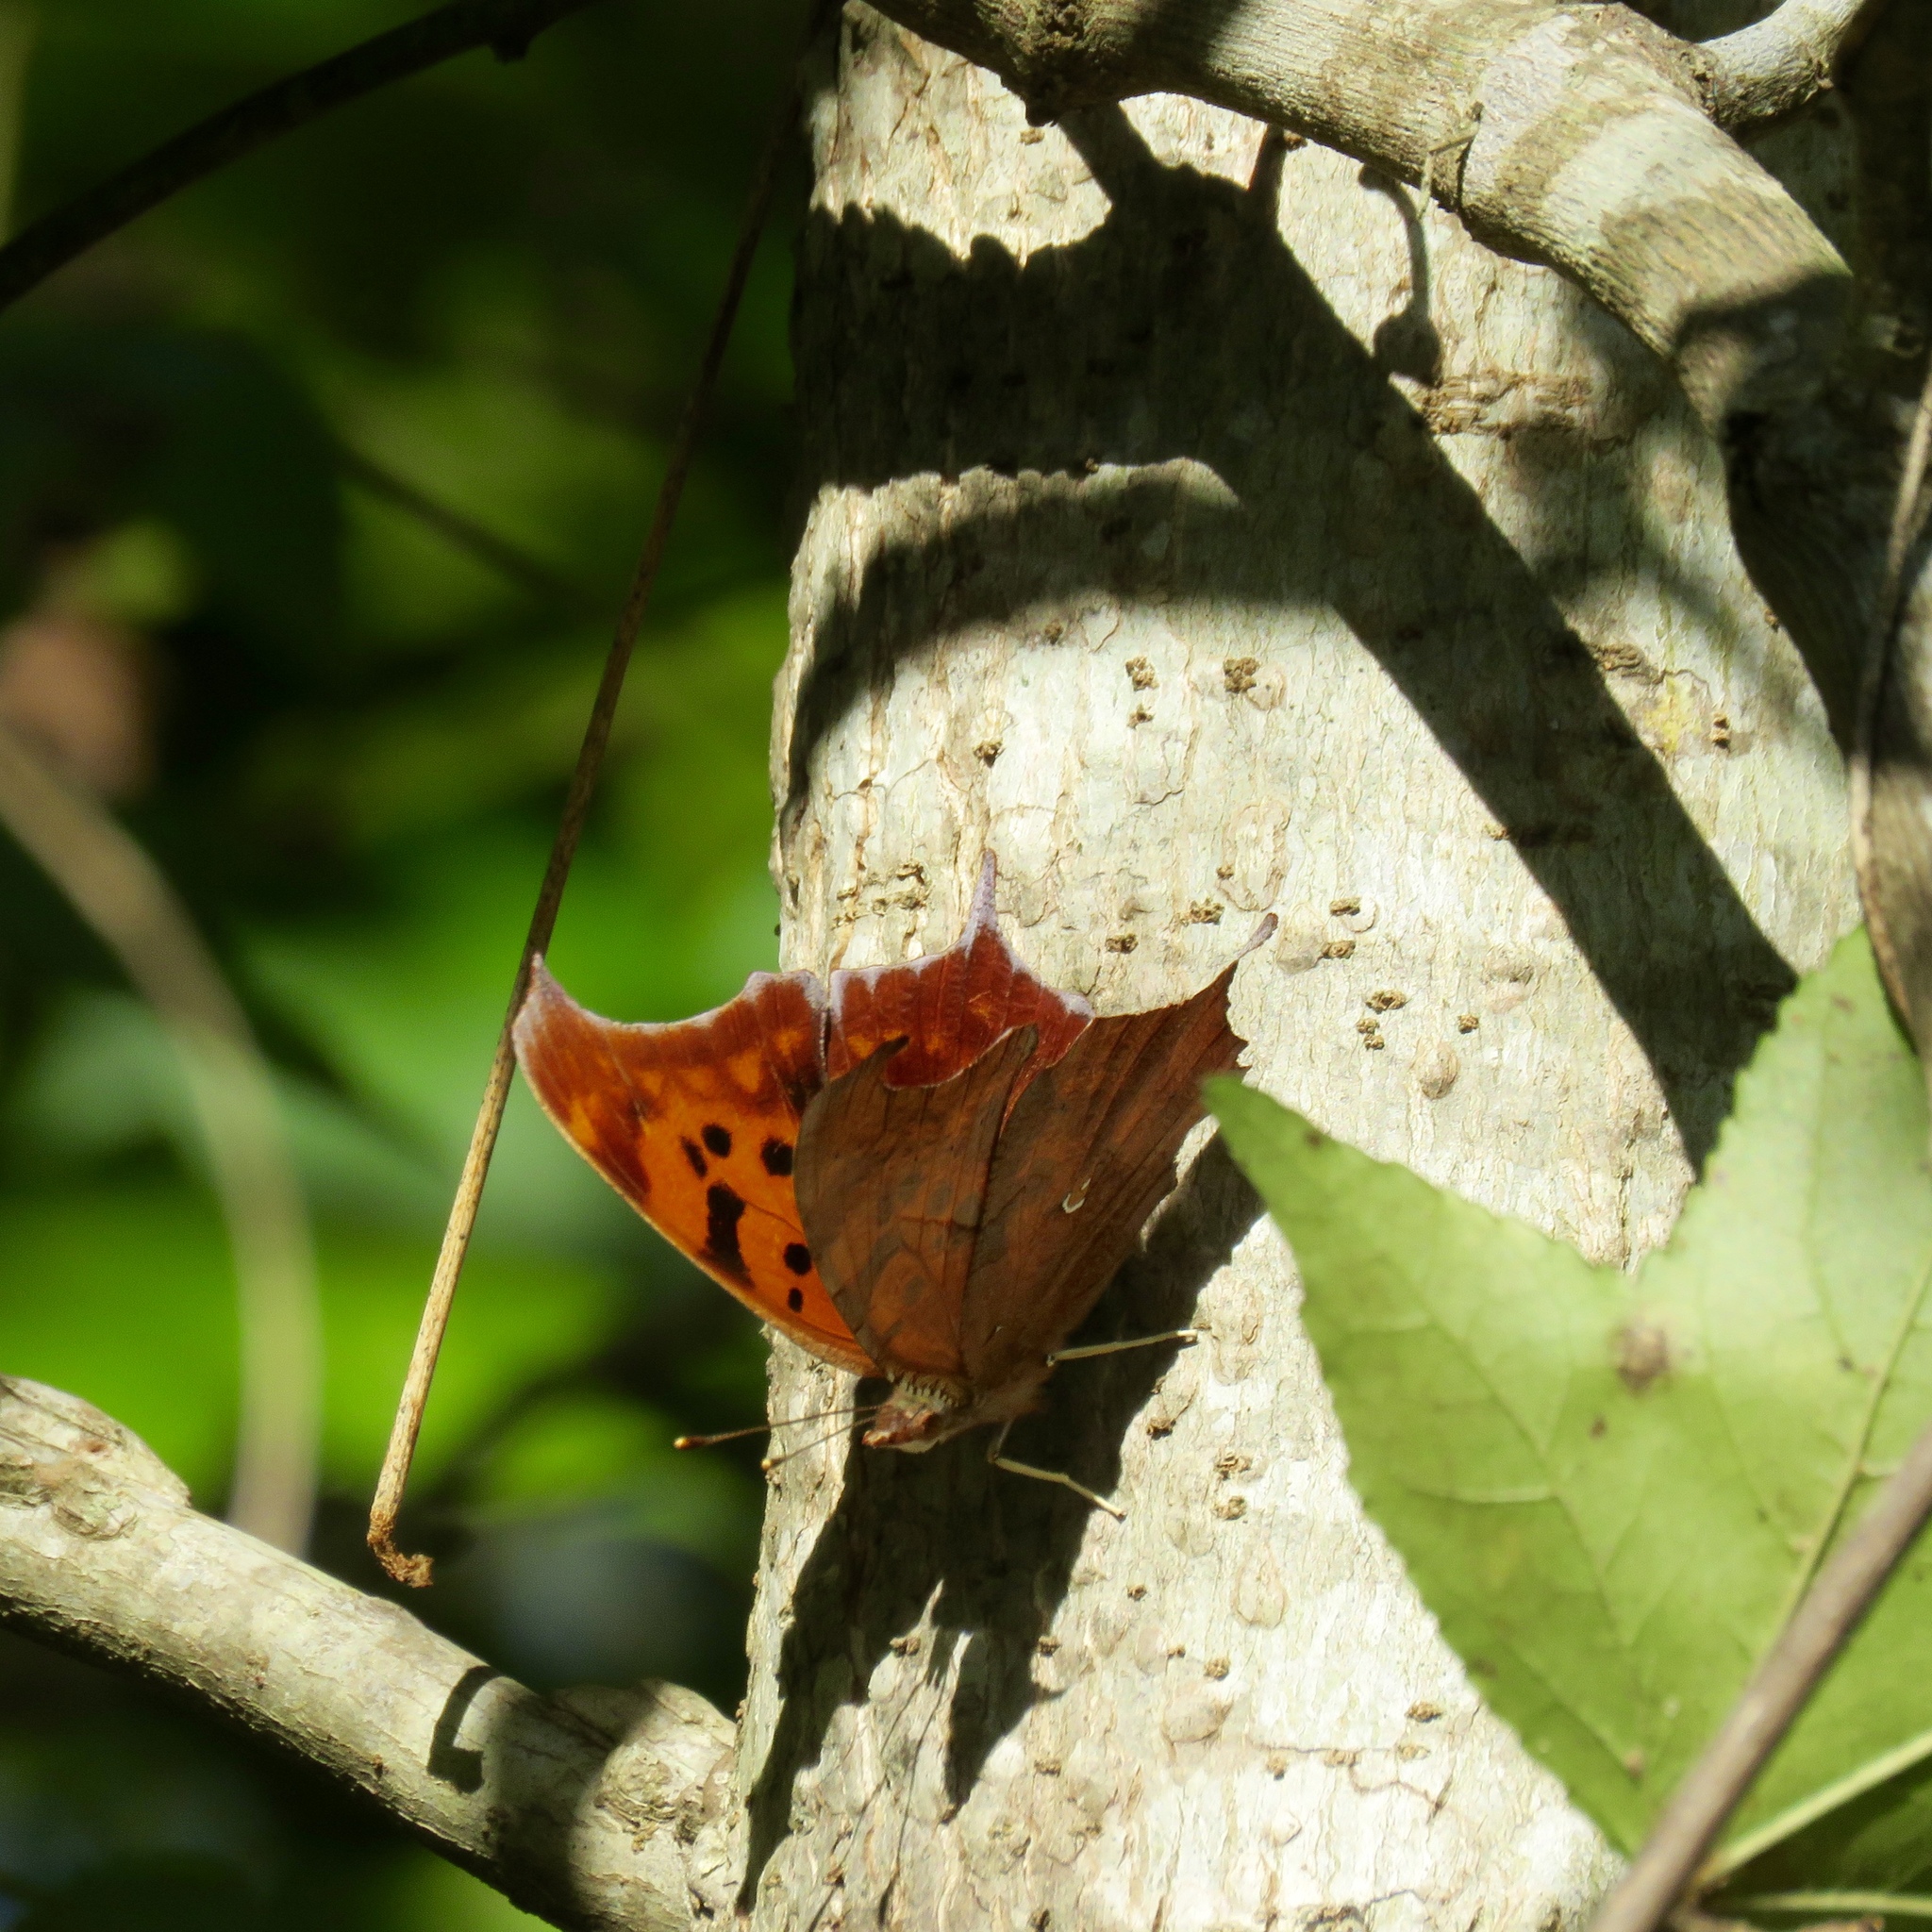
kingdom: Animalia
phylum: Arthropoda
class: Insecta
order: Lepidoptera
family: Nymphalidae
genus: Polygonia
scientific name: Polygonia interrogationis
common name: Question mark
